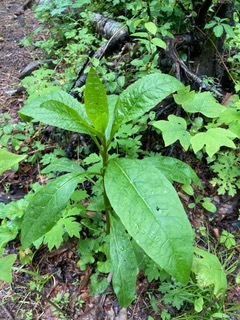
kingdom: Plantae
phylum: Tracheophyta
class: Magnoliopsida
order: Caryophyllales
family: Phytolaccaceae
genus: Phytolacca
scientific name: Phytolacca americana
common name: American pokeweed
